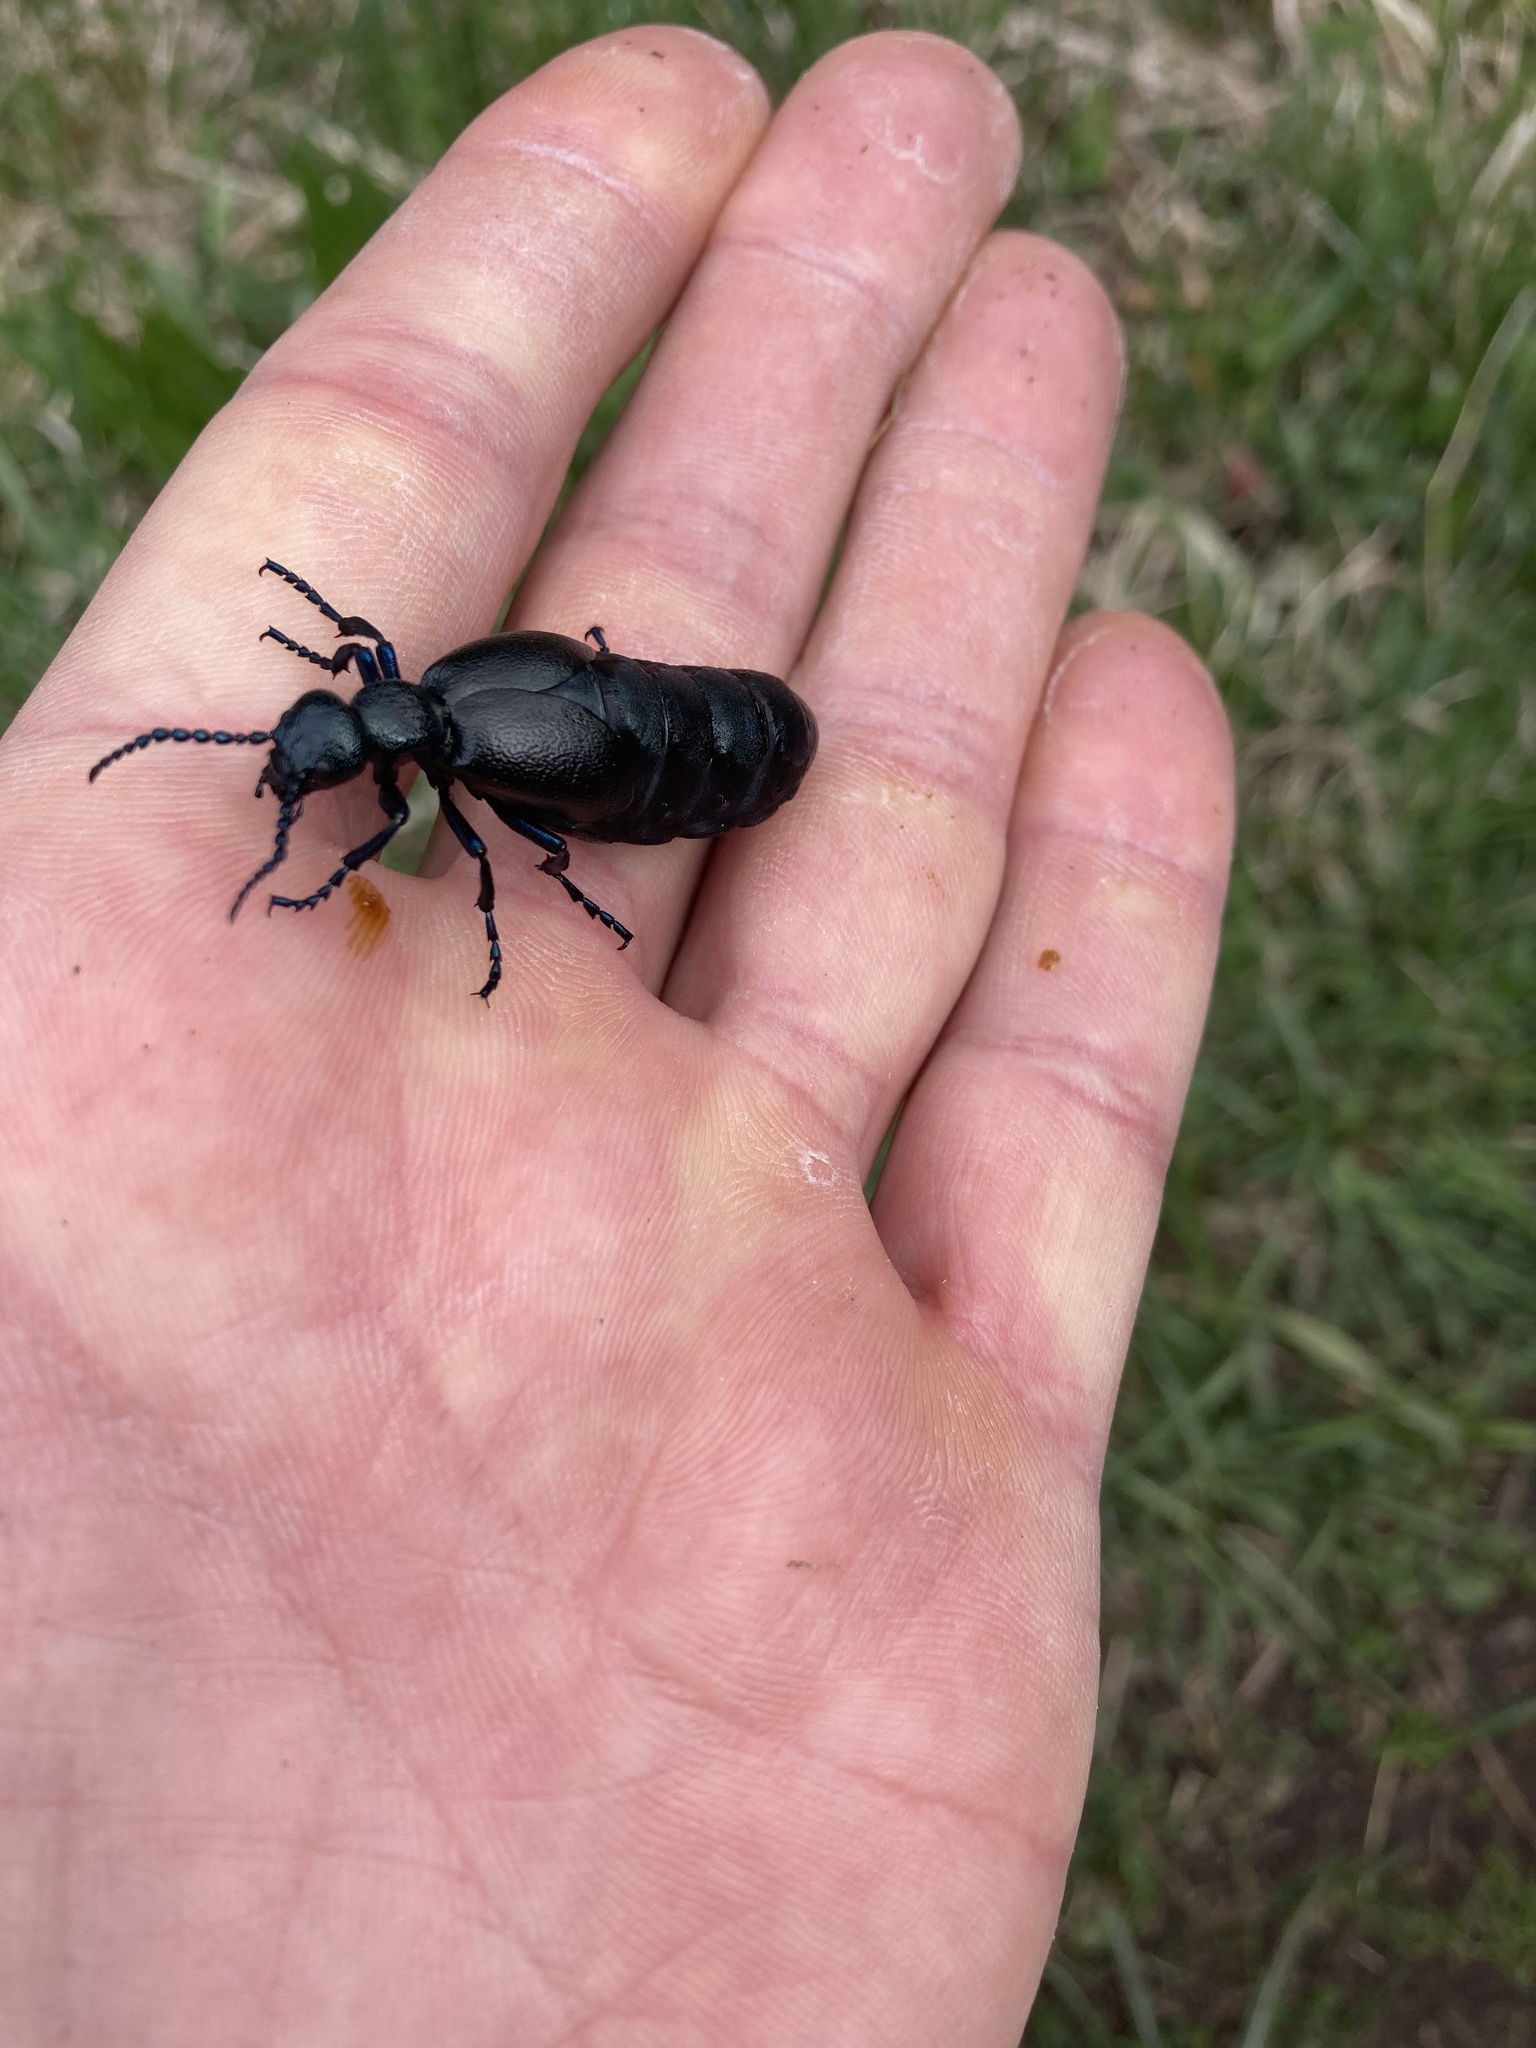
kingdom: Animalia
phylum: Arthropoda
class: Insecta
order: Coleoptera
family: Meloidae
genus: Meloe
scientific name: Meloe proscarabaeus
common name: Black oil-beetle
